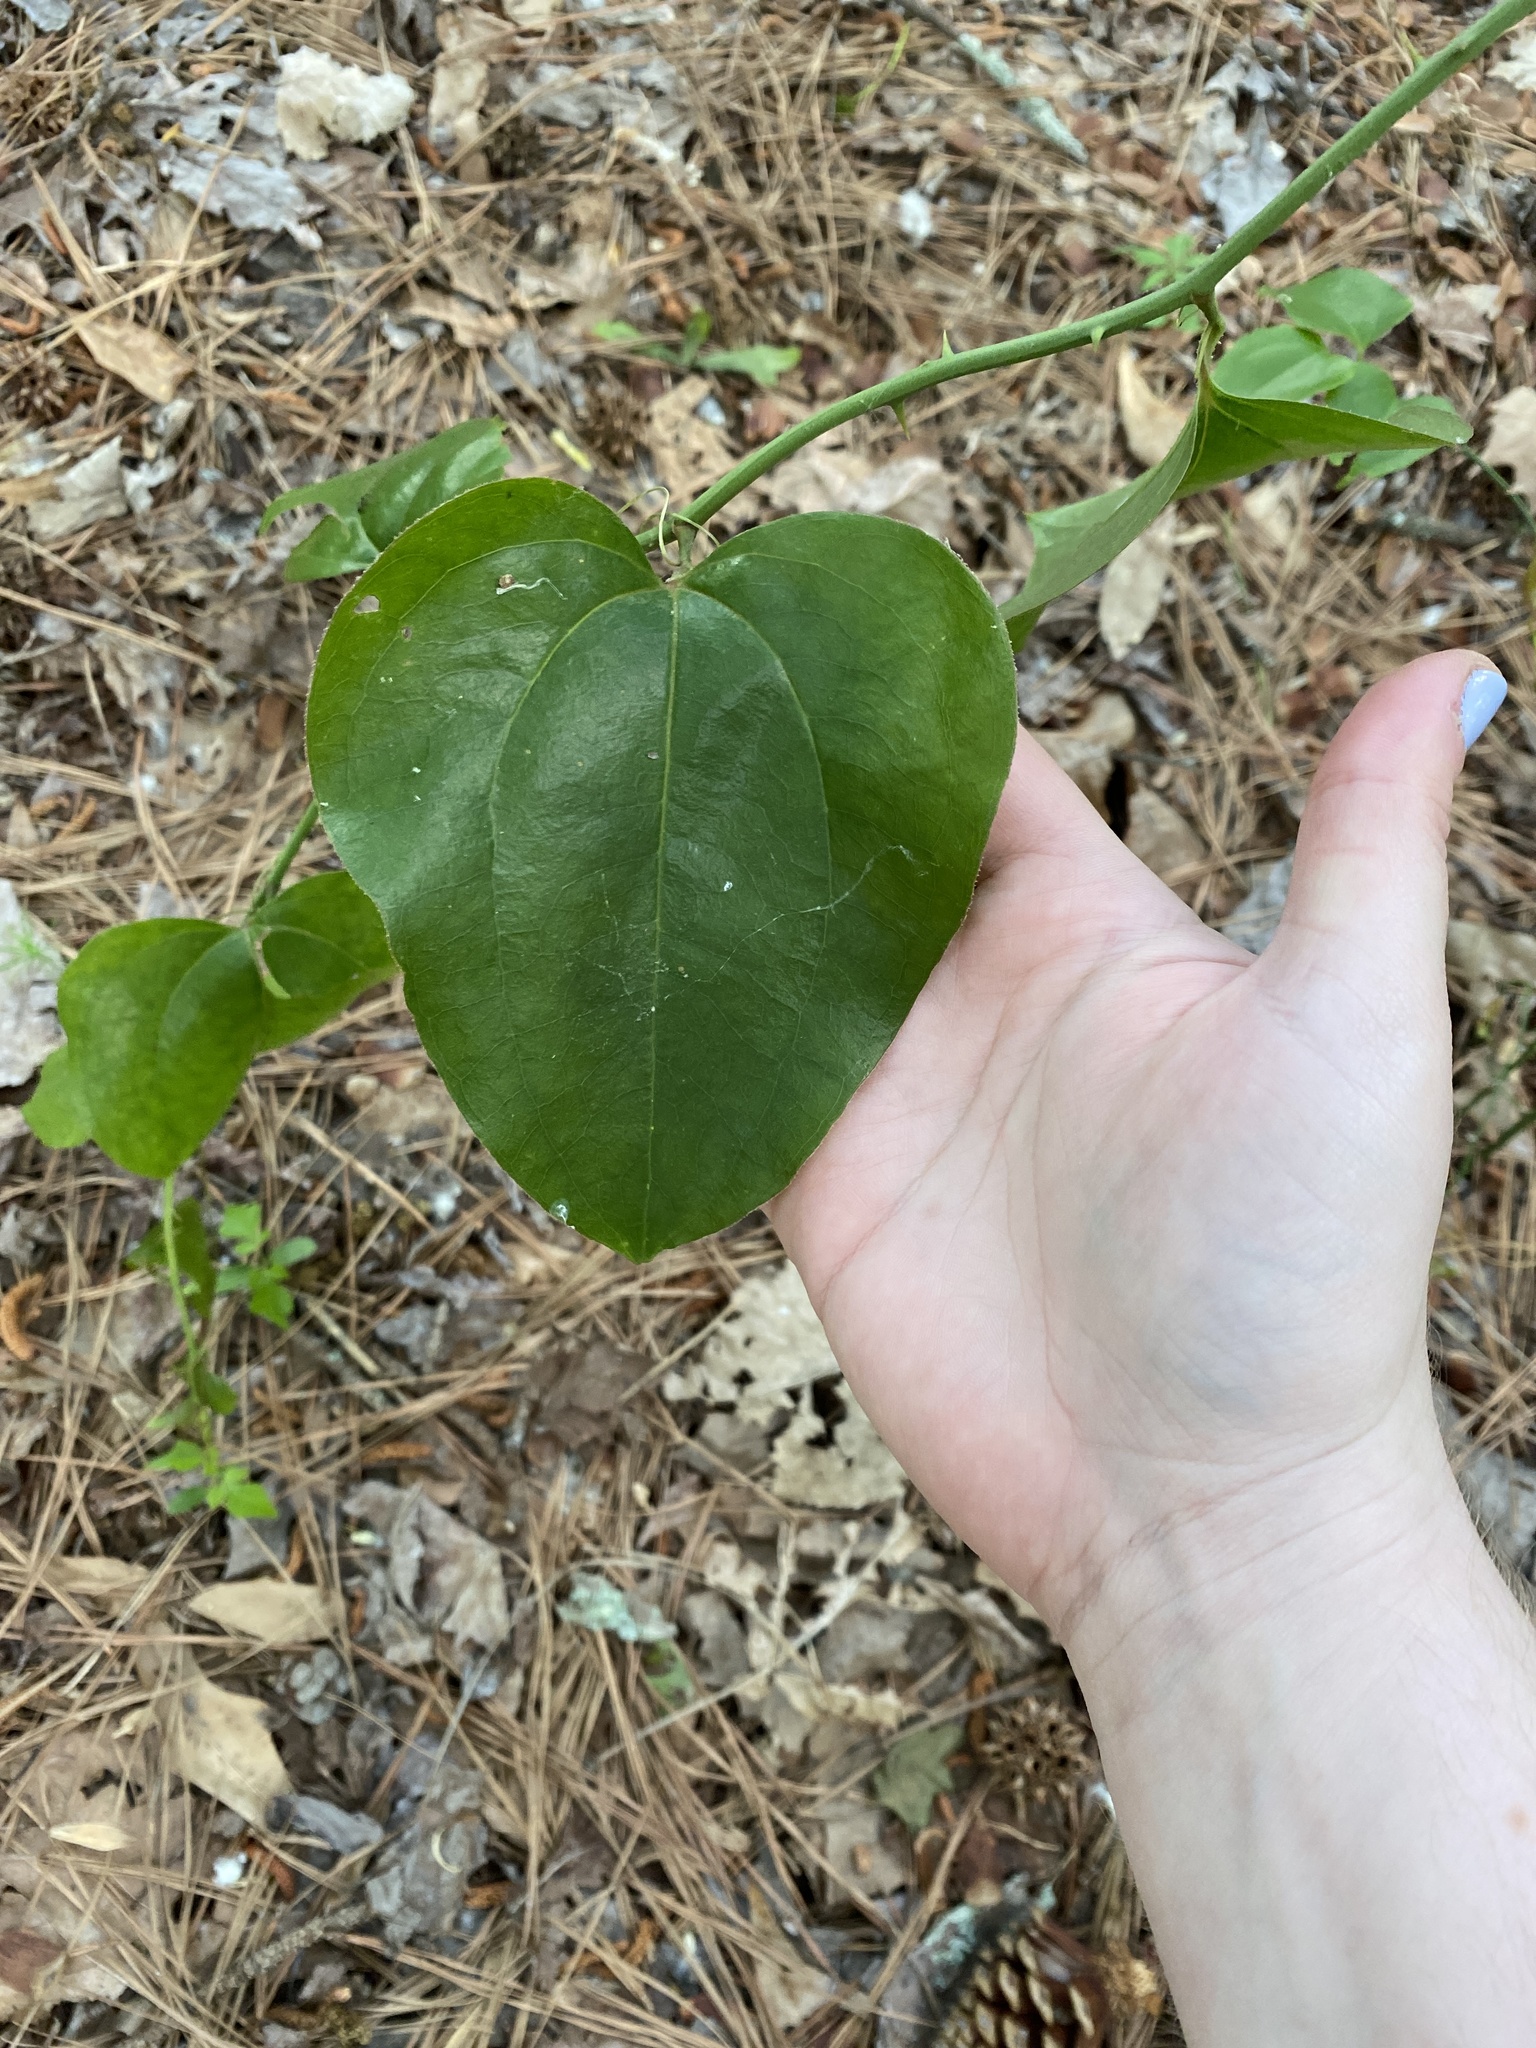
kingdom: Plantae
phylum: Tracheophyta
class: Liliopsida
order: Liliales
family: Smilacaceae
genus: Smilax
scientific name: Smilax rotundifolia
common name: Bullbriar
